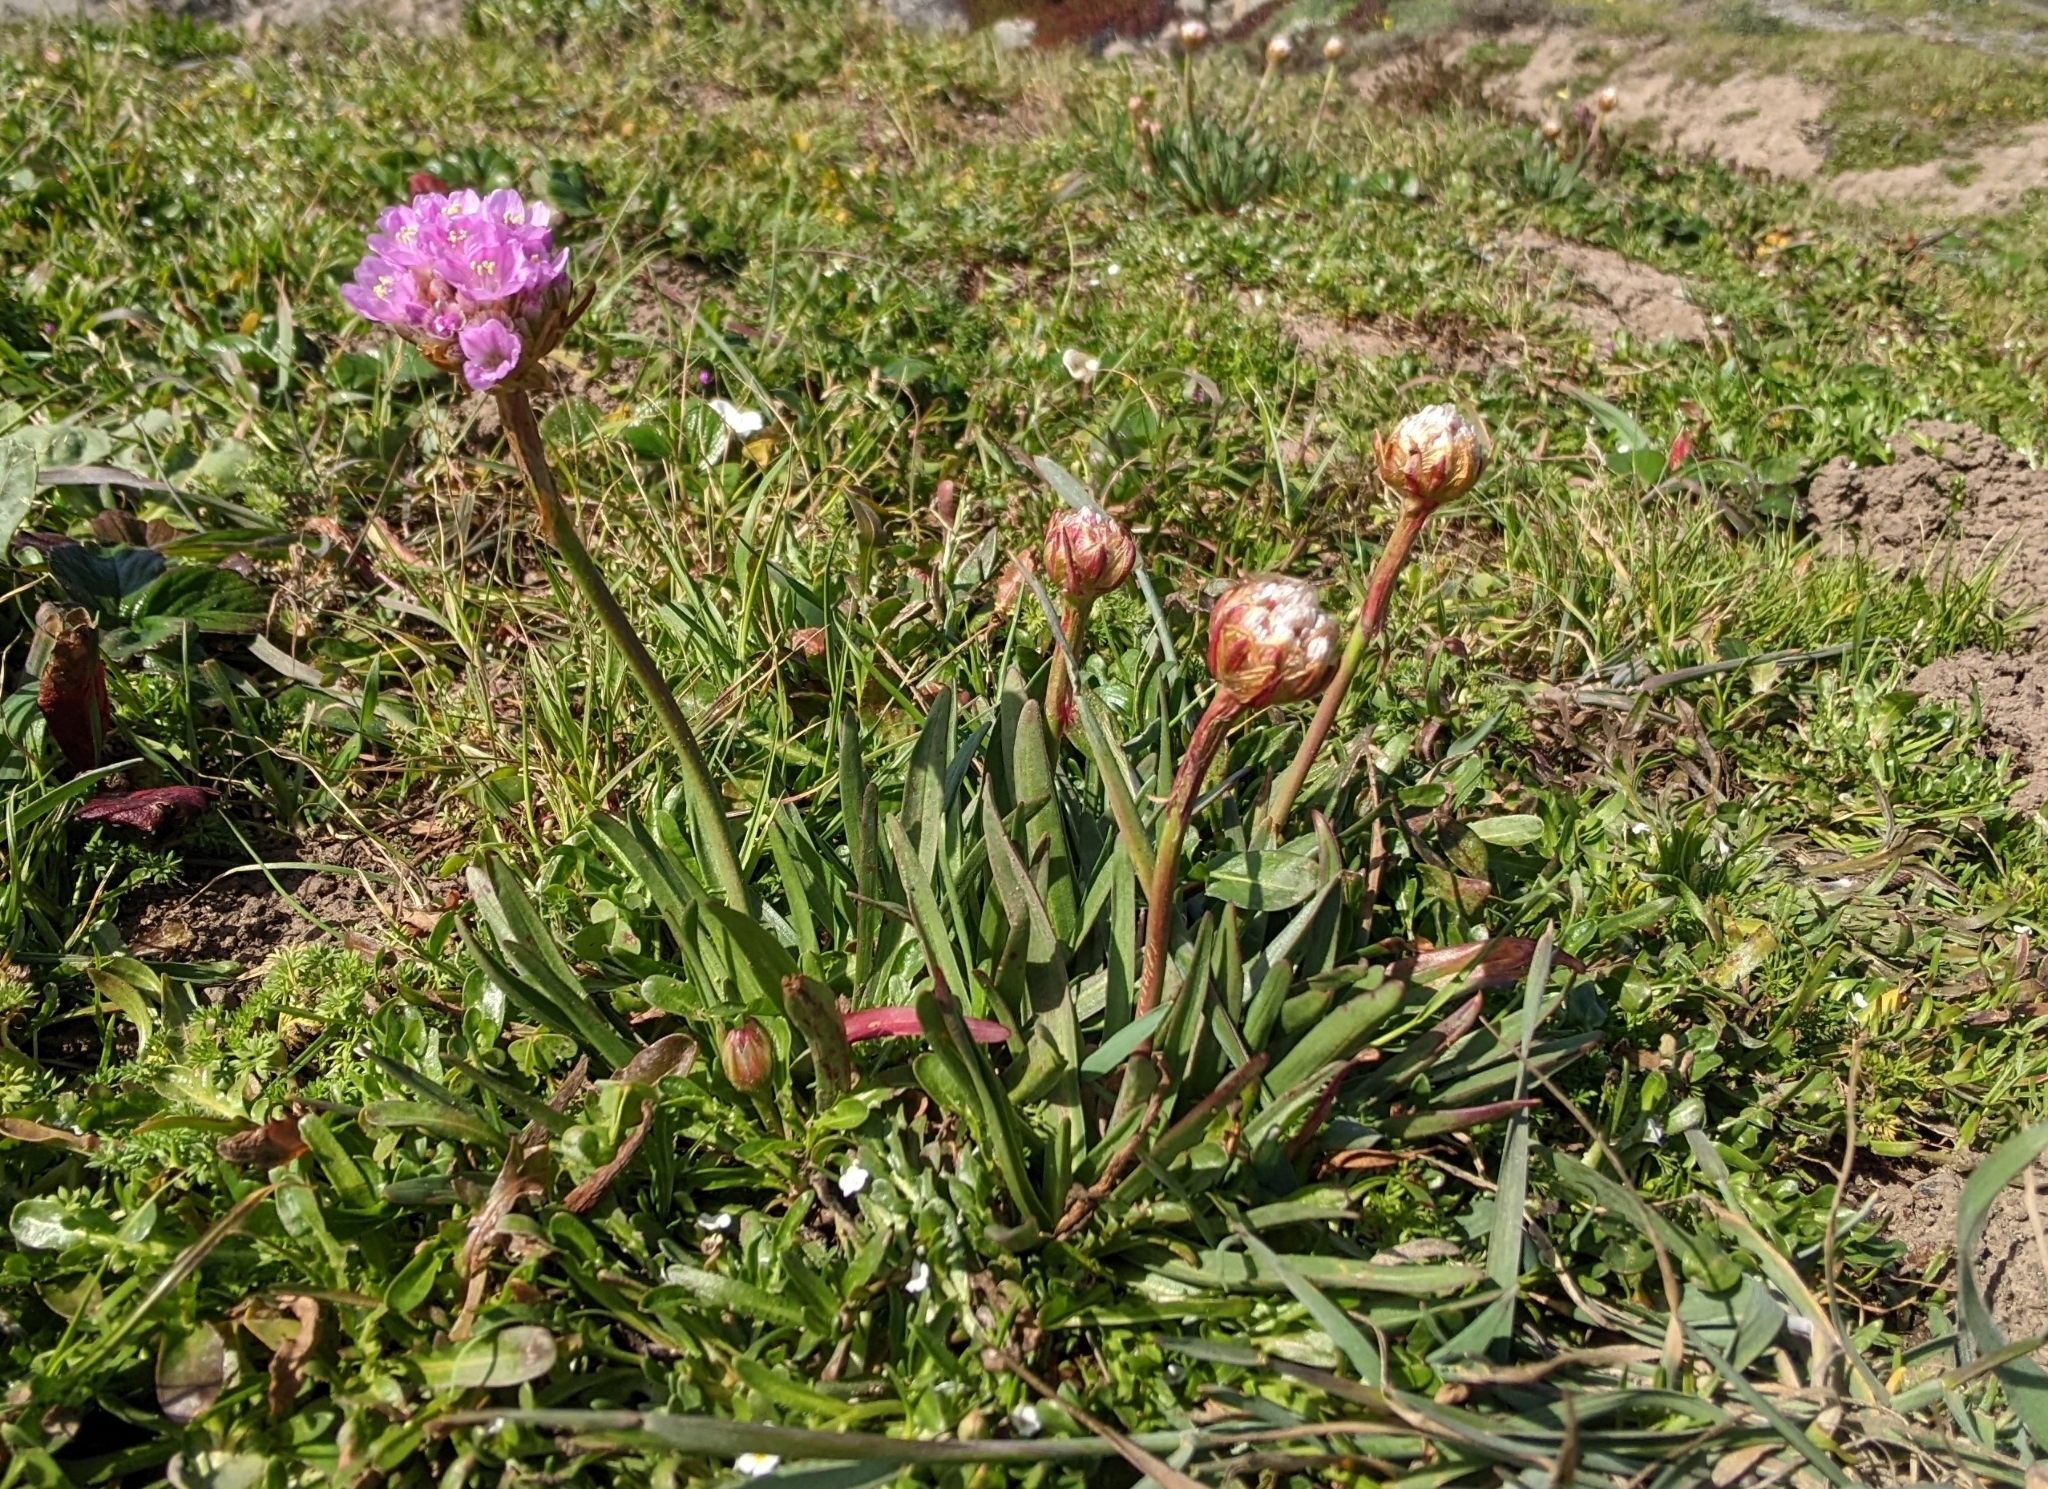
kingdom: Plantae
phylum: Tracheophyta
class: Magnoliopsida
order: Caryophyllales
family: Plumbaginaceae
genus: Armeria
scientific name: Armeria maritima
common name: Thrift
